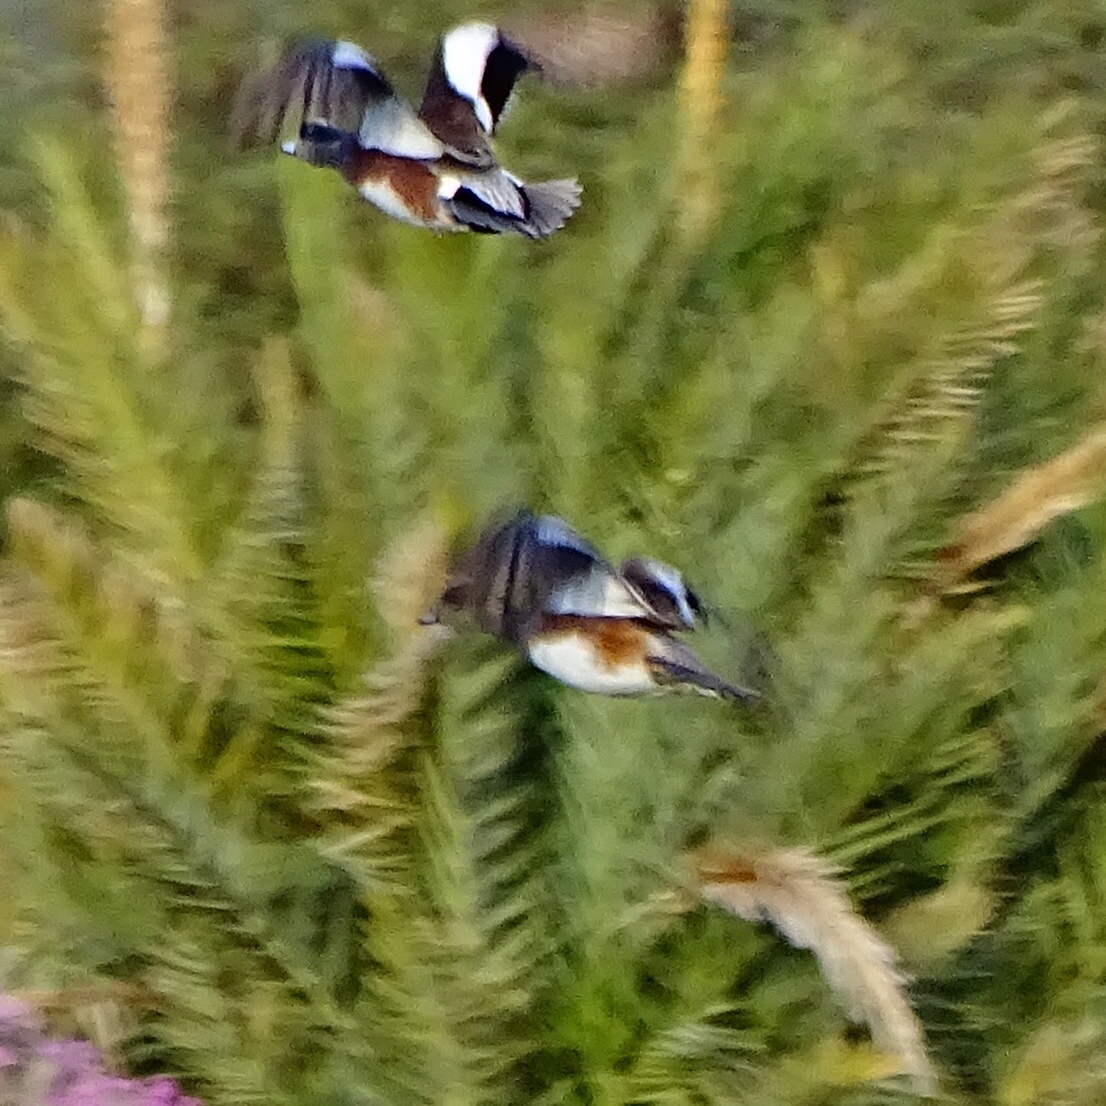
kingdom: Animalia
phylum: Chordata
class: Aves
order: Anseriformes
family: Anatidae
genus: Mareca
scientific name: Mareca americana
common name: American wigeon
